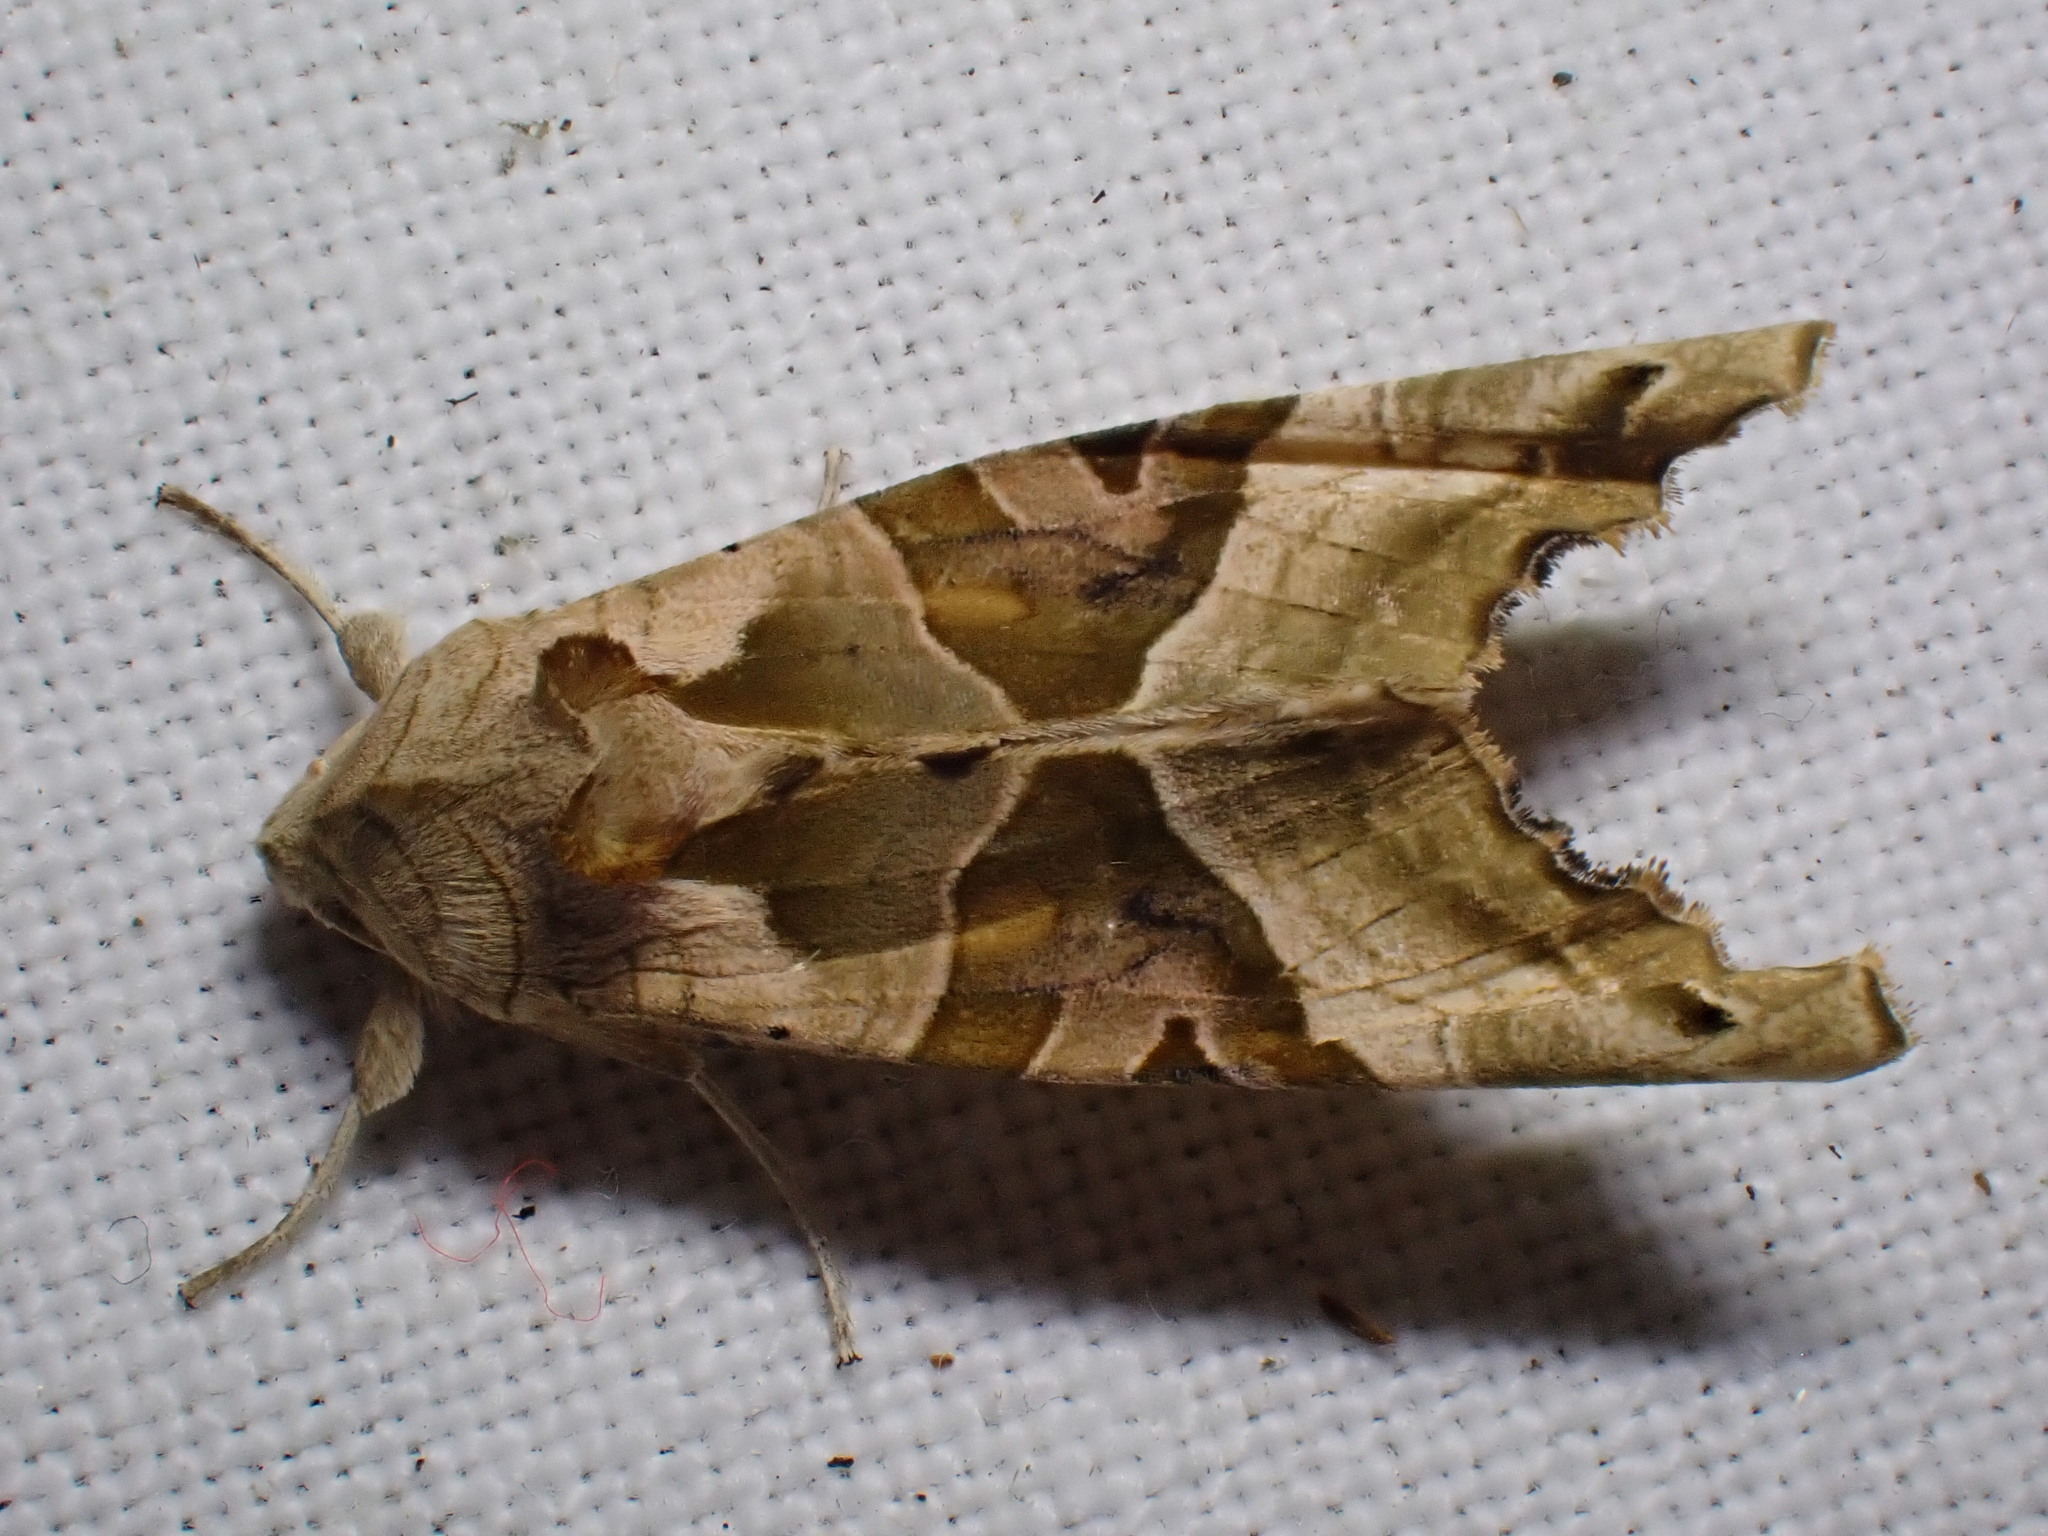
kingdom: Animalia
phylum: Arthropoda
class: Insecta
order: Lepidoptera
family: Noctuidae
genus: Phlogophora
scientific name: Phlogophora meticulosa
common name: Angle shades
